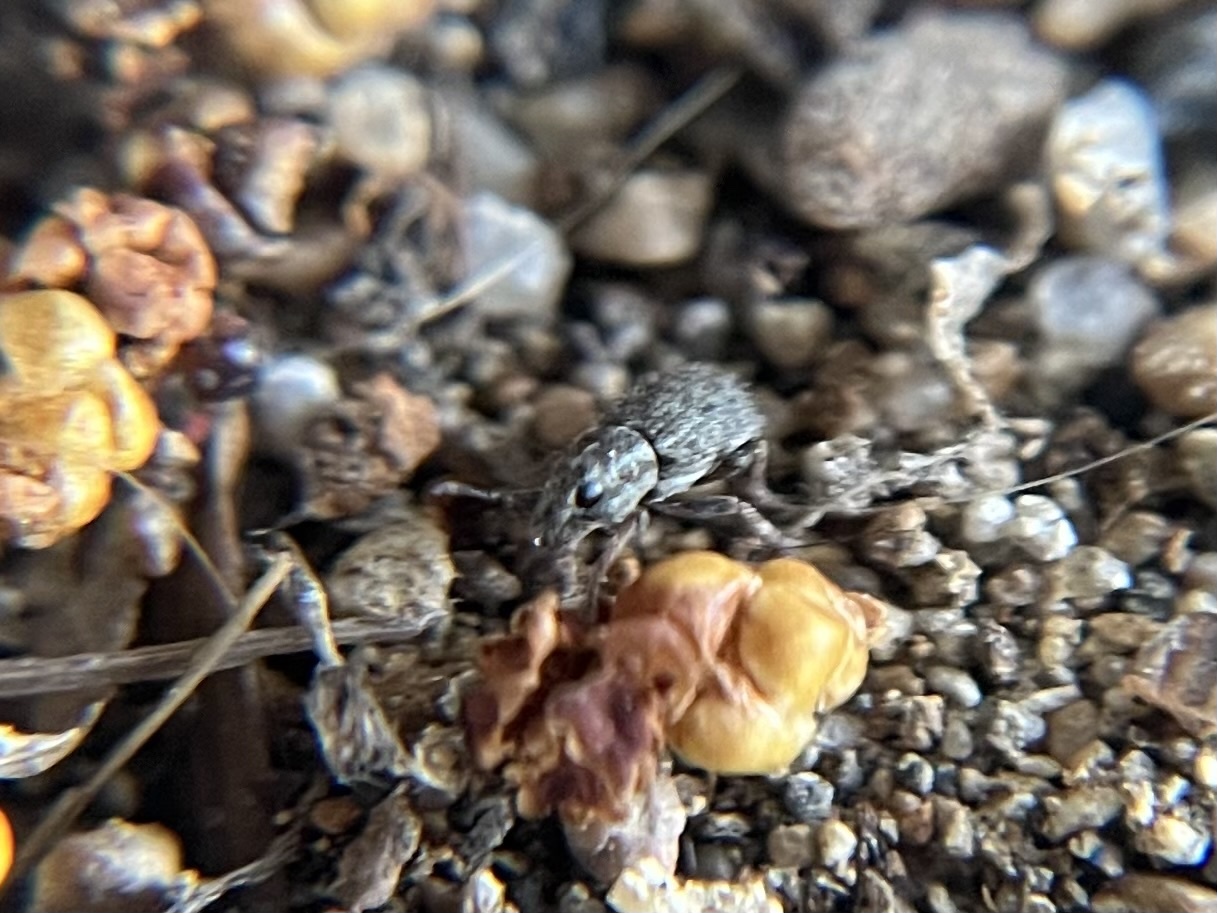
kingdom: Animalia
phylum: Arthropoda
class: Insecta
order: Coleoptera
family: Curculionidae
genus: Sitona
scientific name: Sitona hispidulus
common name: Clover weevil
